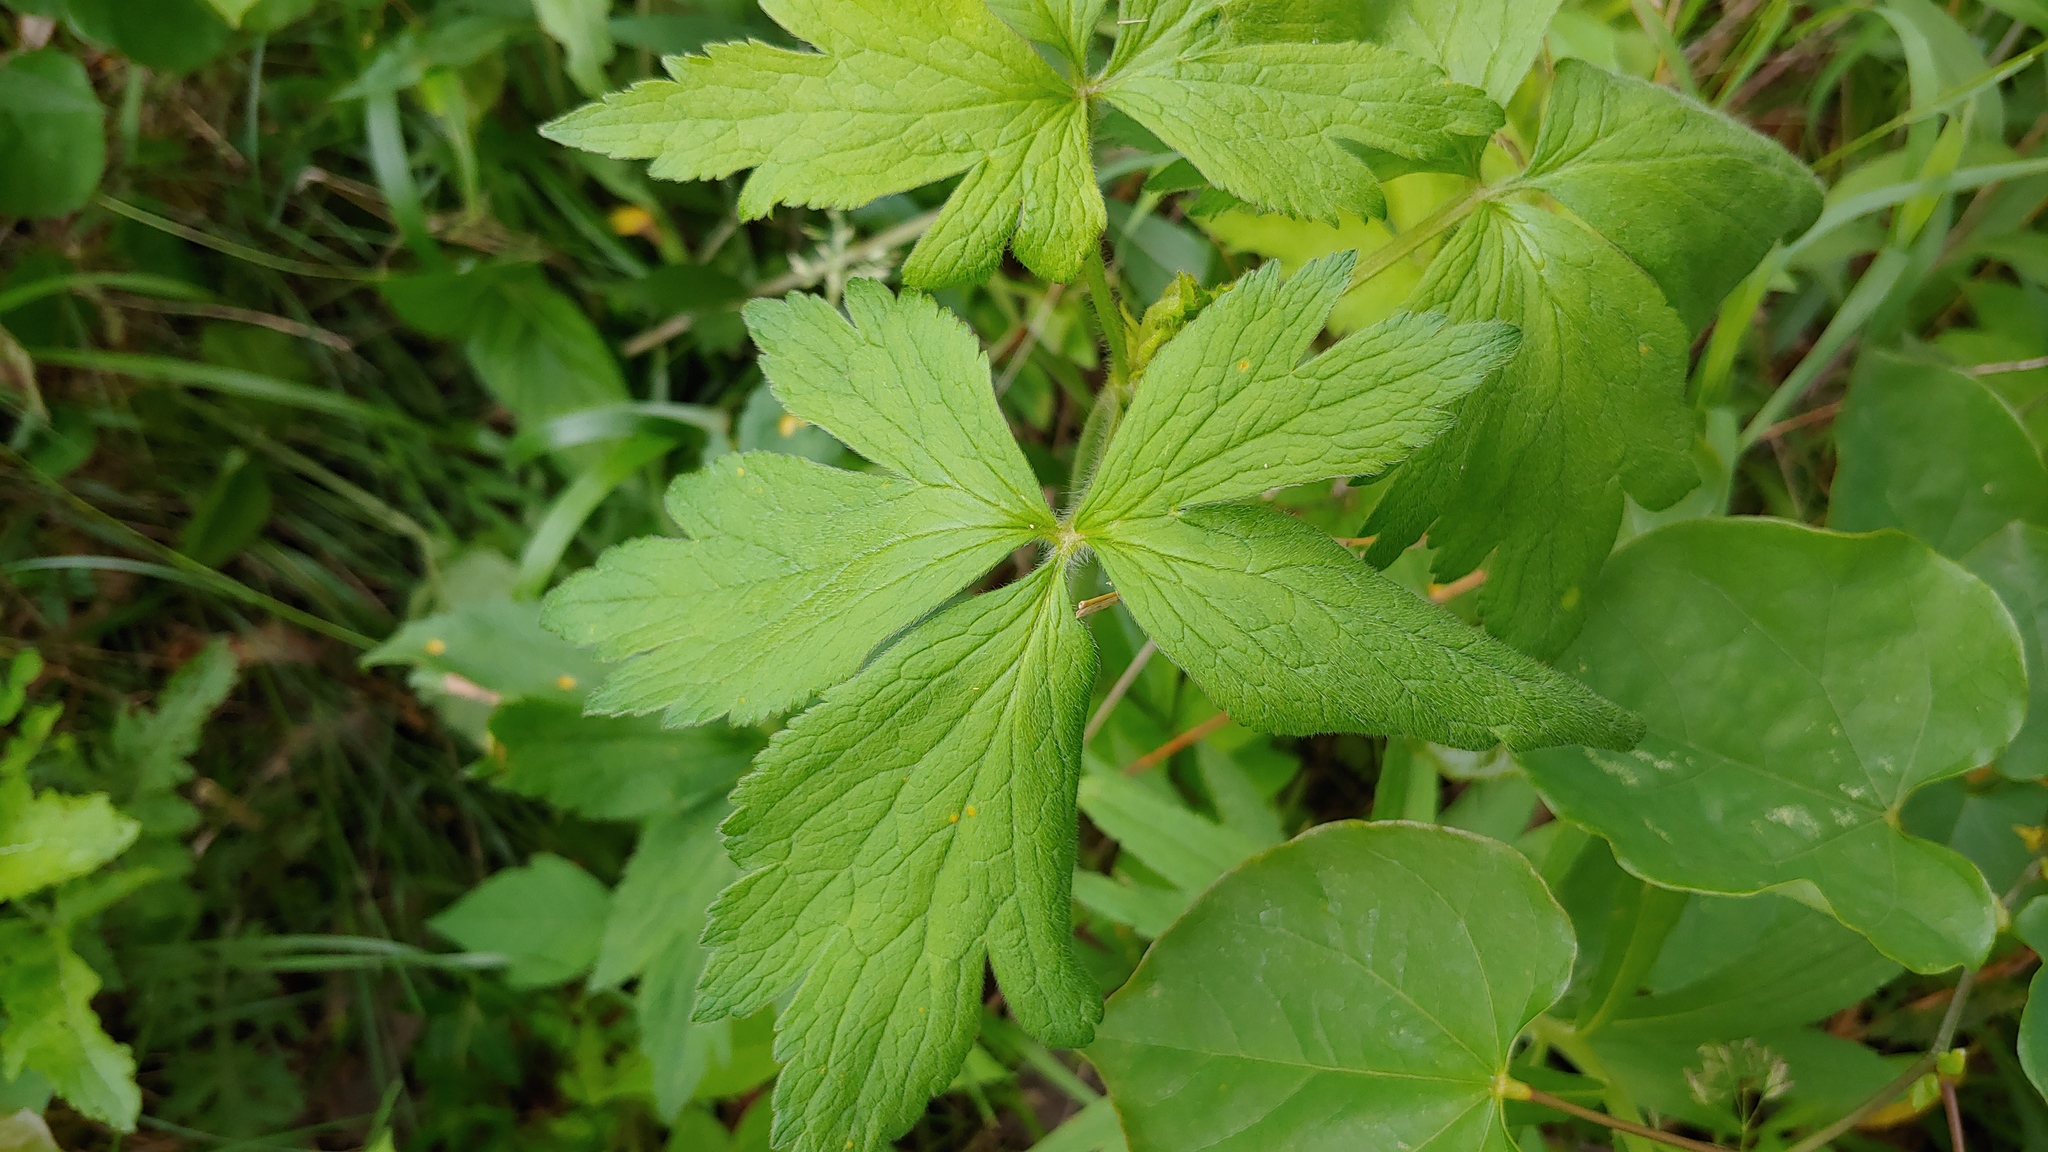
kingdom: Plantae
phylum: Tracheophyta
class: Magnoliopsida
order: Ranunculales
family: Ranunculaceae
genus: Anemone
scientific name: Anemone virginiana
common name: Tall anemone
